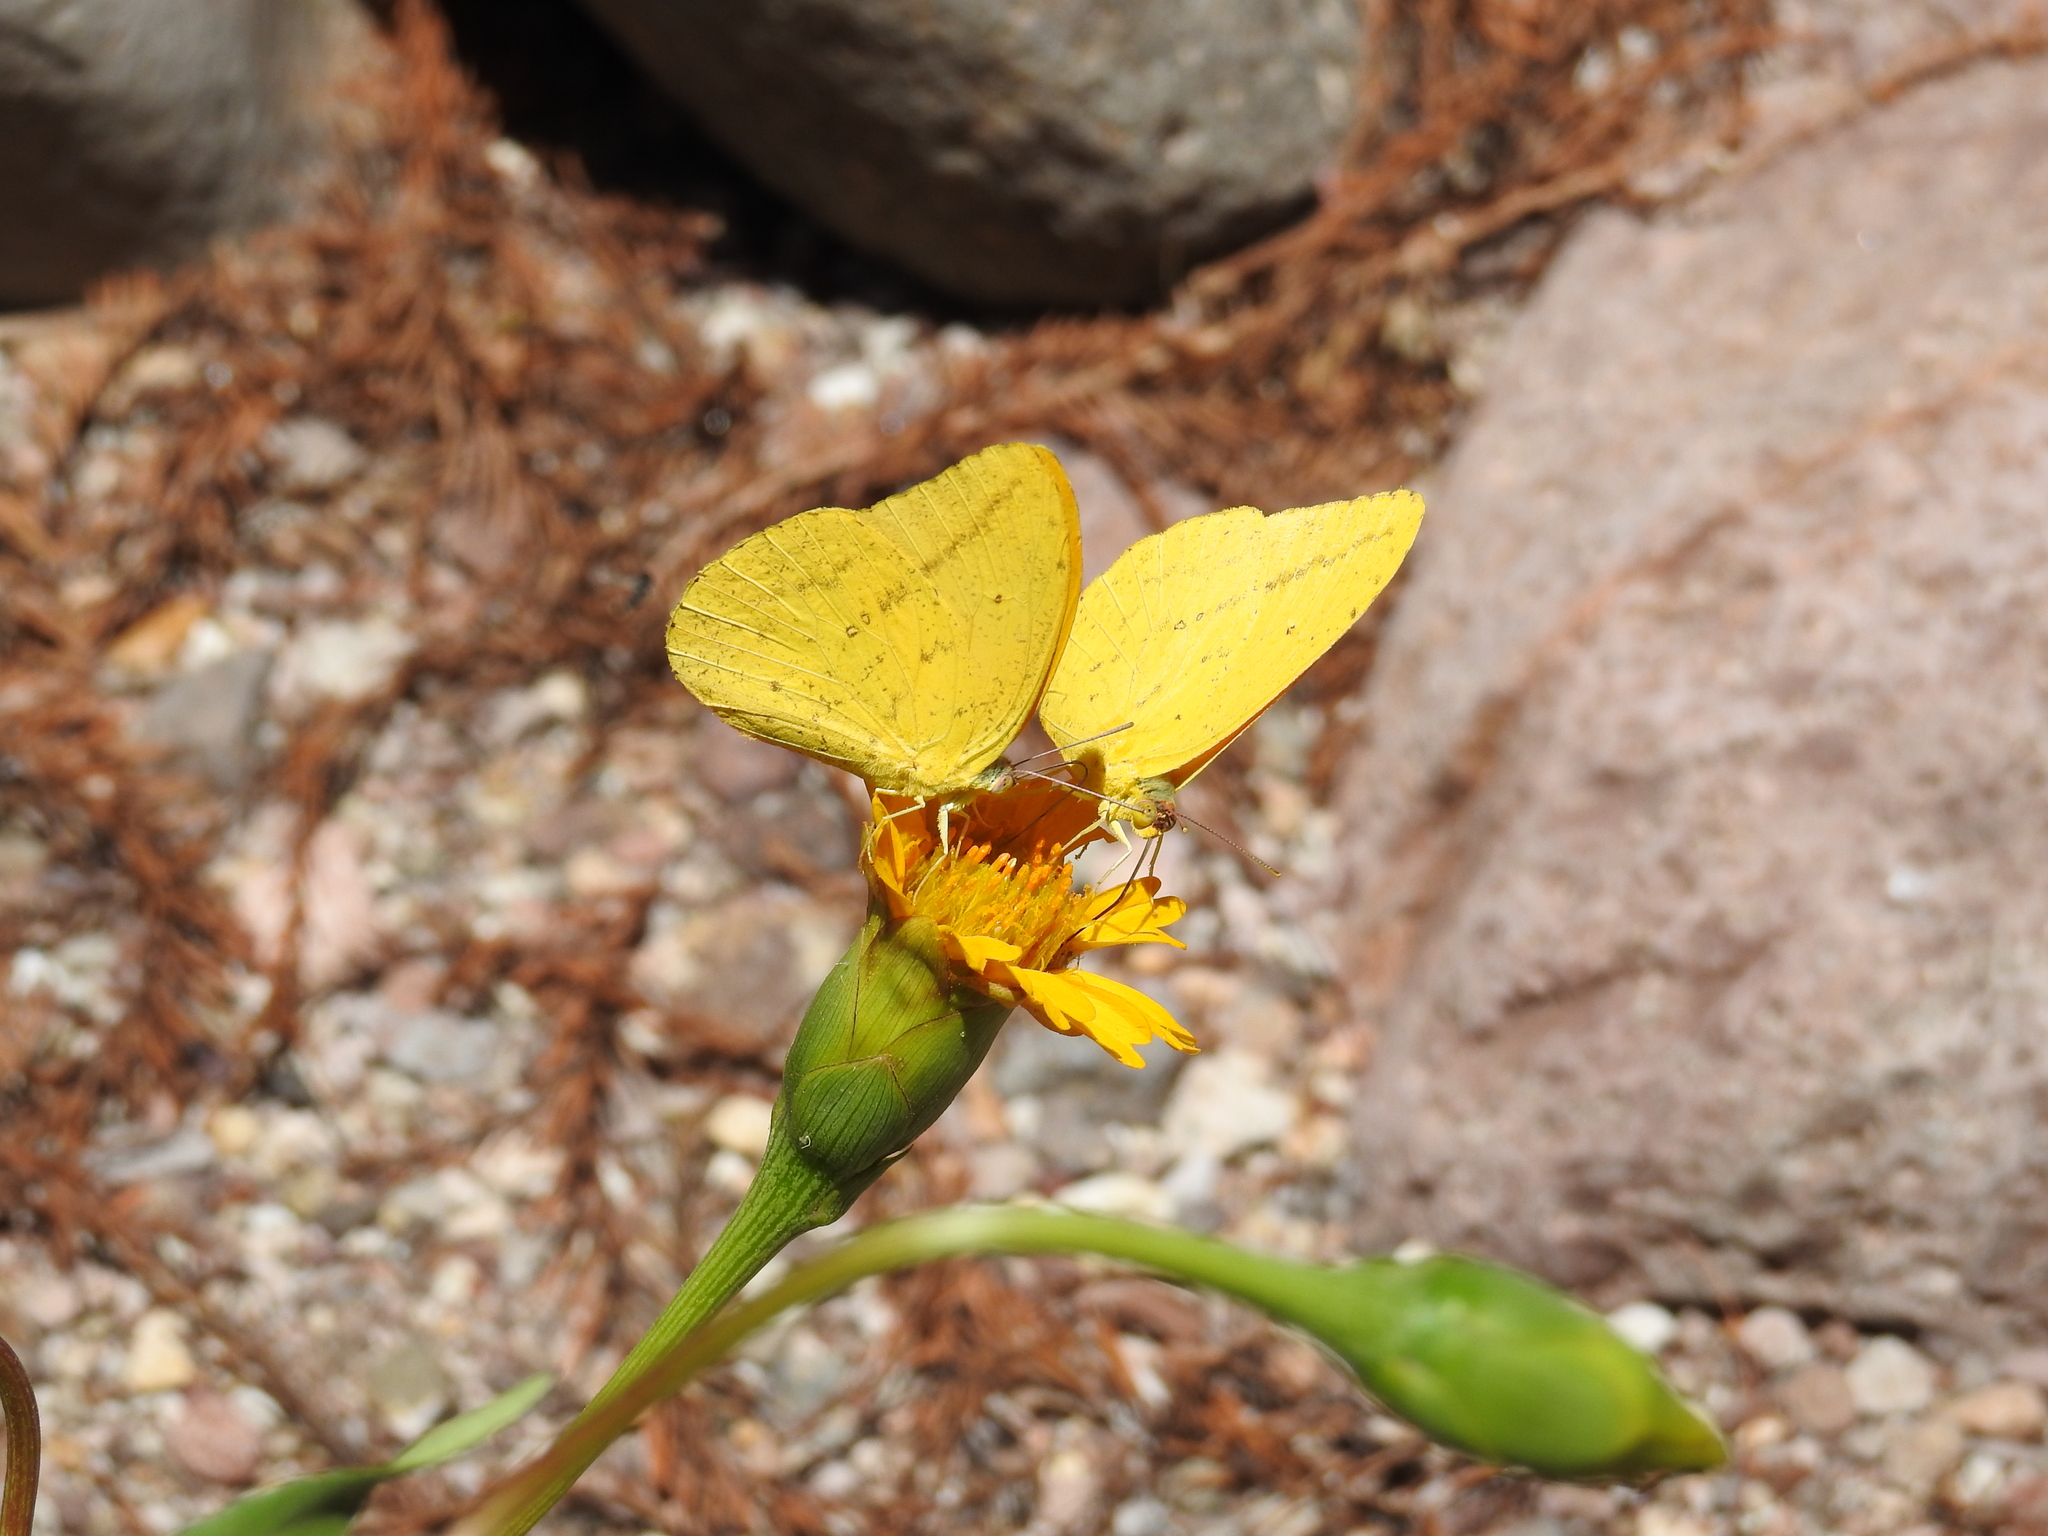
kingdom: Animalia
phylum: Arthropoda
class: Insecta
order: Lepidoptera
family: Pieridae
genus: Phoebis
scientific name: Phoebis agarithe
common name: Large orange sulphur
